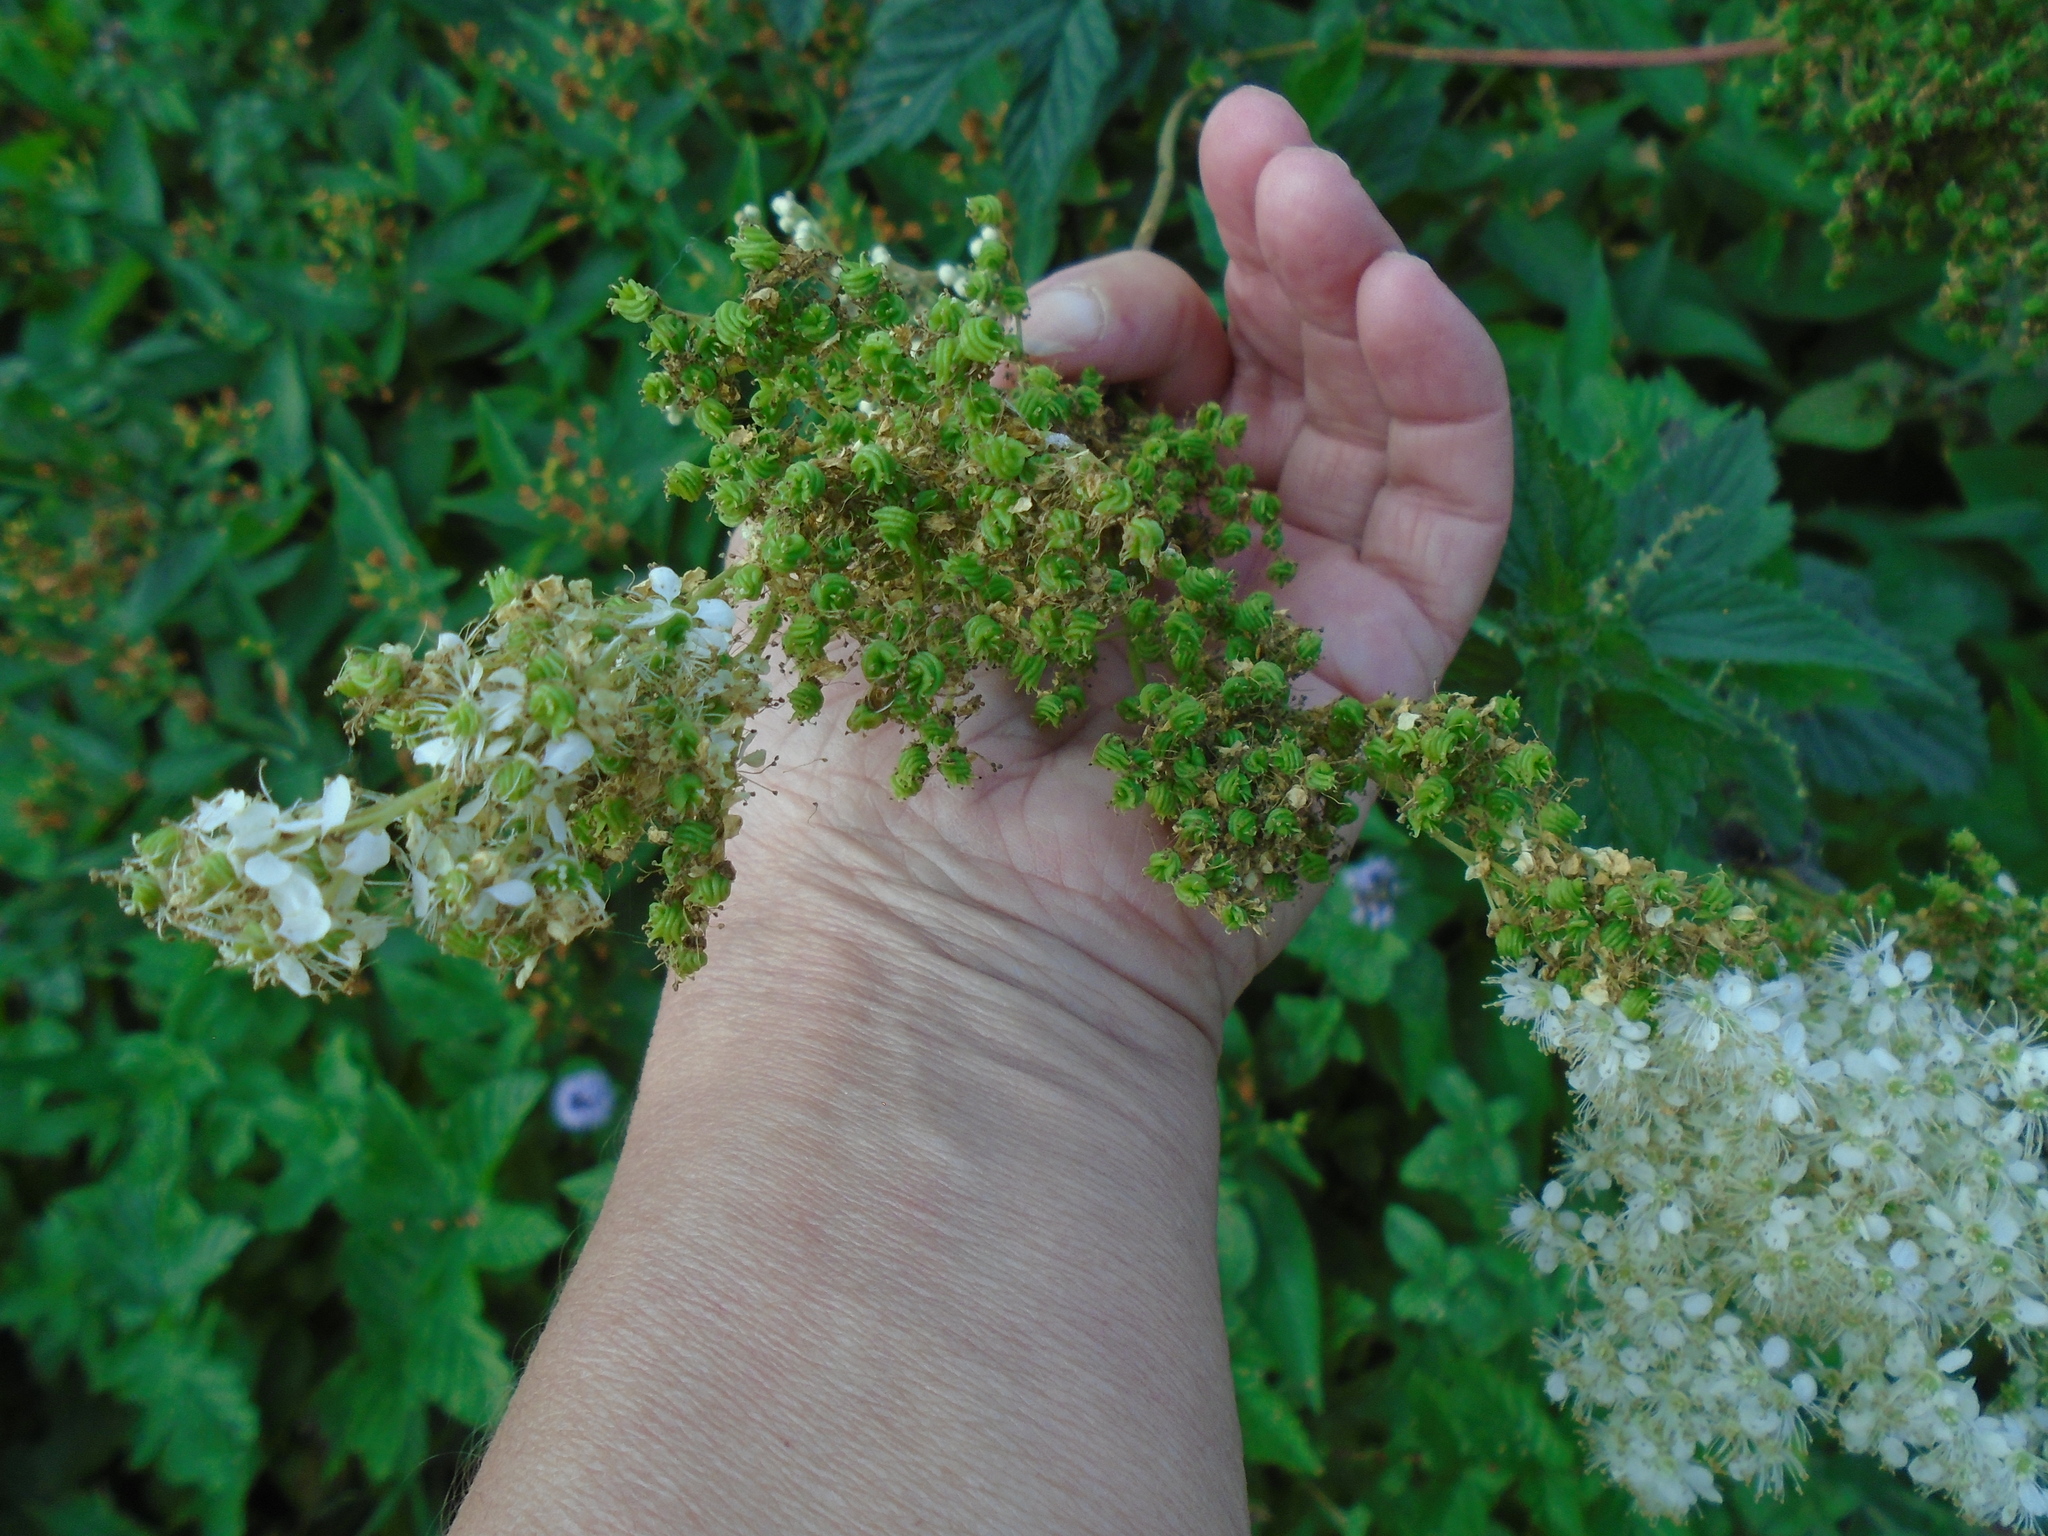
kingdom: Plantae
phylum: Tracheophyta
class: Magnoliopsida
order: Rosales
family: Rosaceae
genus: Filipendula
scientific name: Filipendula ulmaria
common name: Meadowsweet
